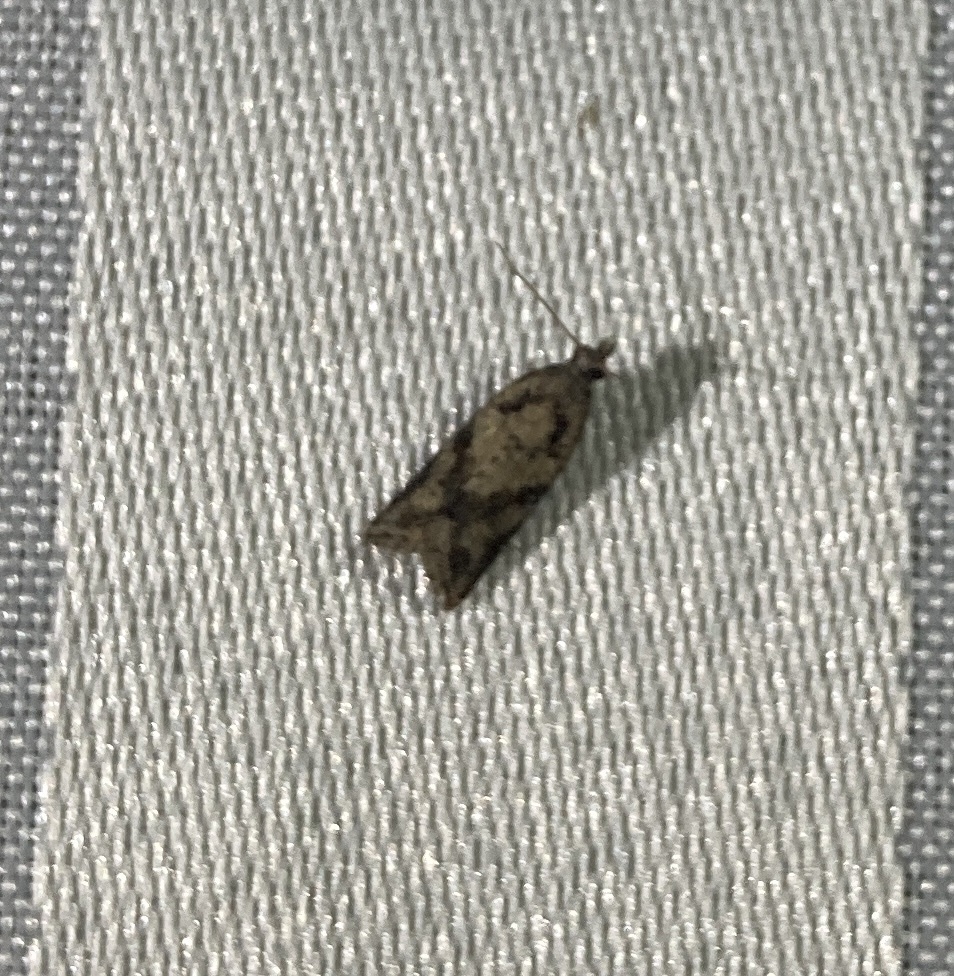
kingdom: Animalia
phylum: Arthropoda
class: Insecta
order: Lepidoptera
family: Tortricidae
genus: Capua
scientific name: Capua semiferana
